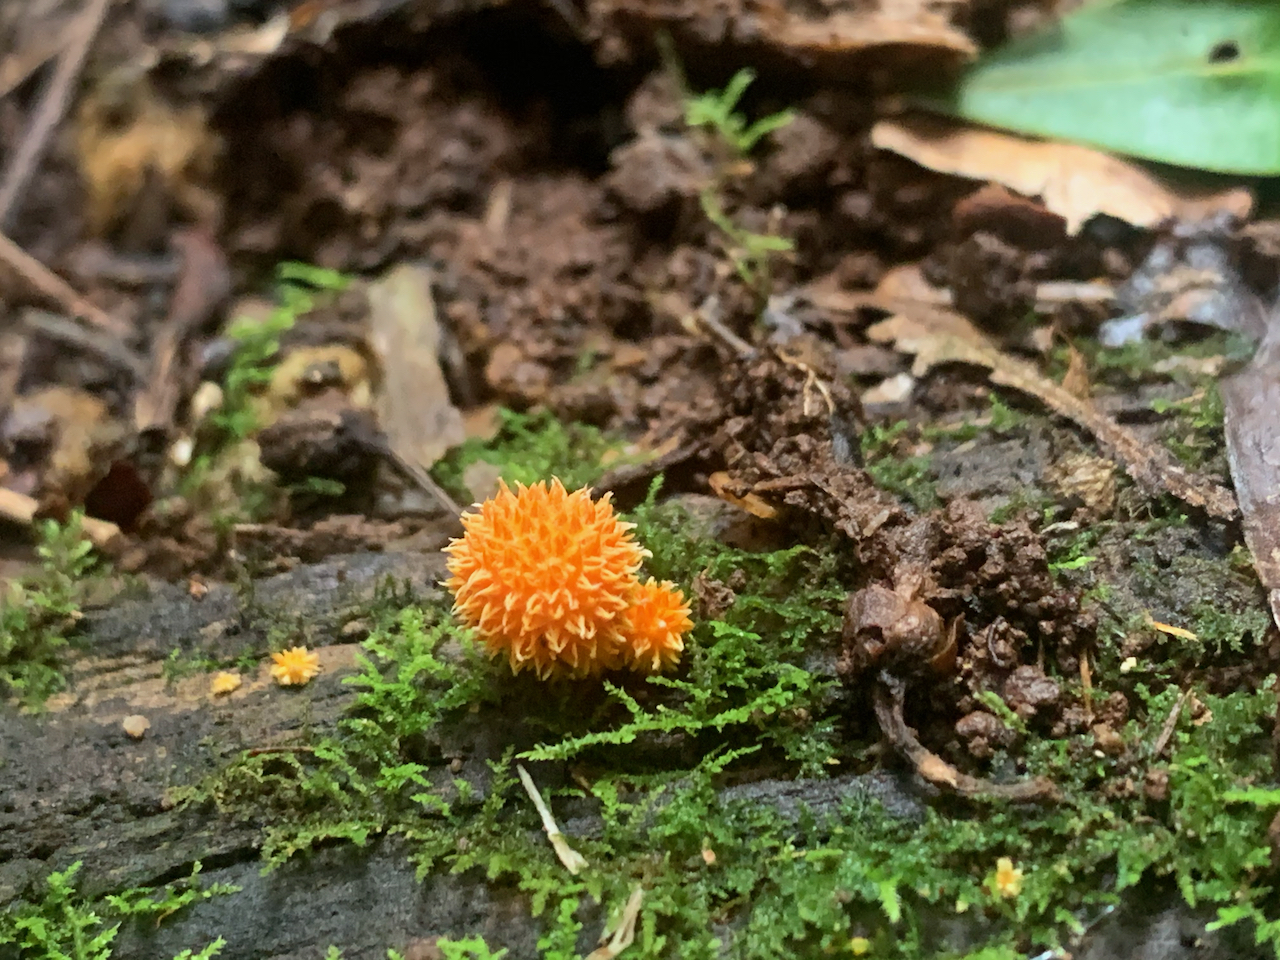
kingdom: Fungi
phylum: Basidiomycota
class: Agaricomycetes
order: Agaricales
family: Physalacriaceae
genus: Cyptotrama
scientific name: Cyptotrama asprata
